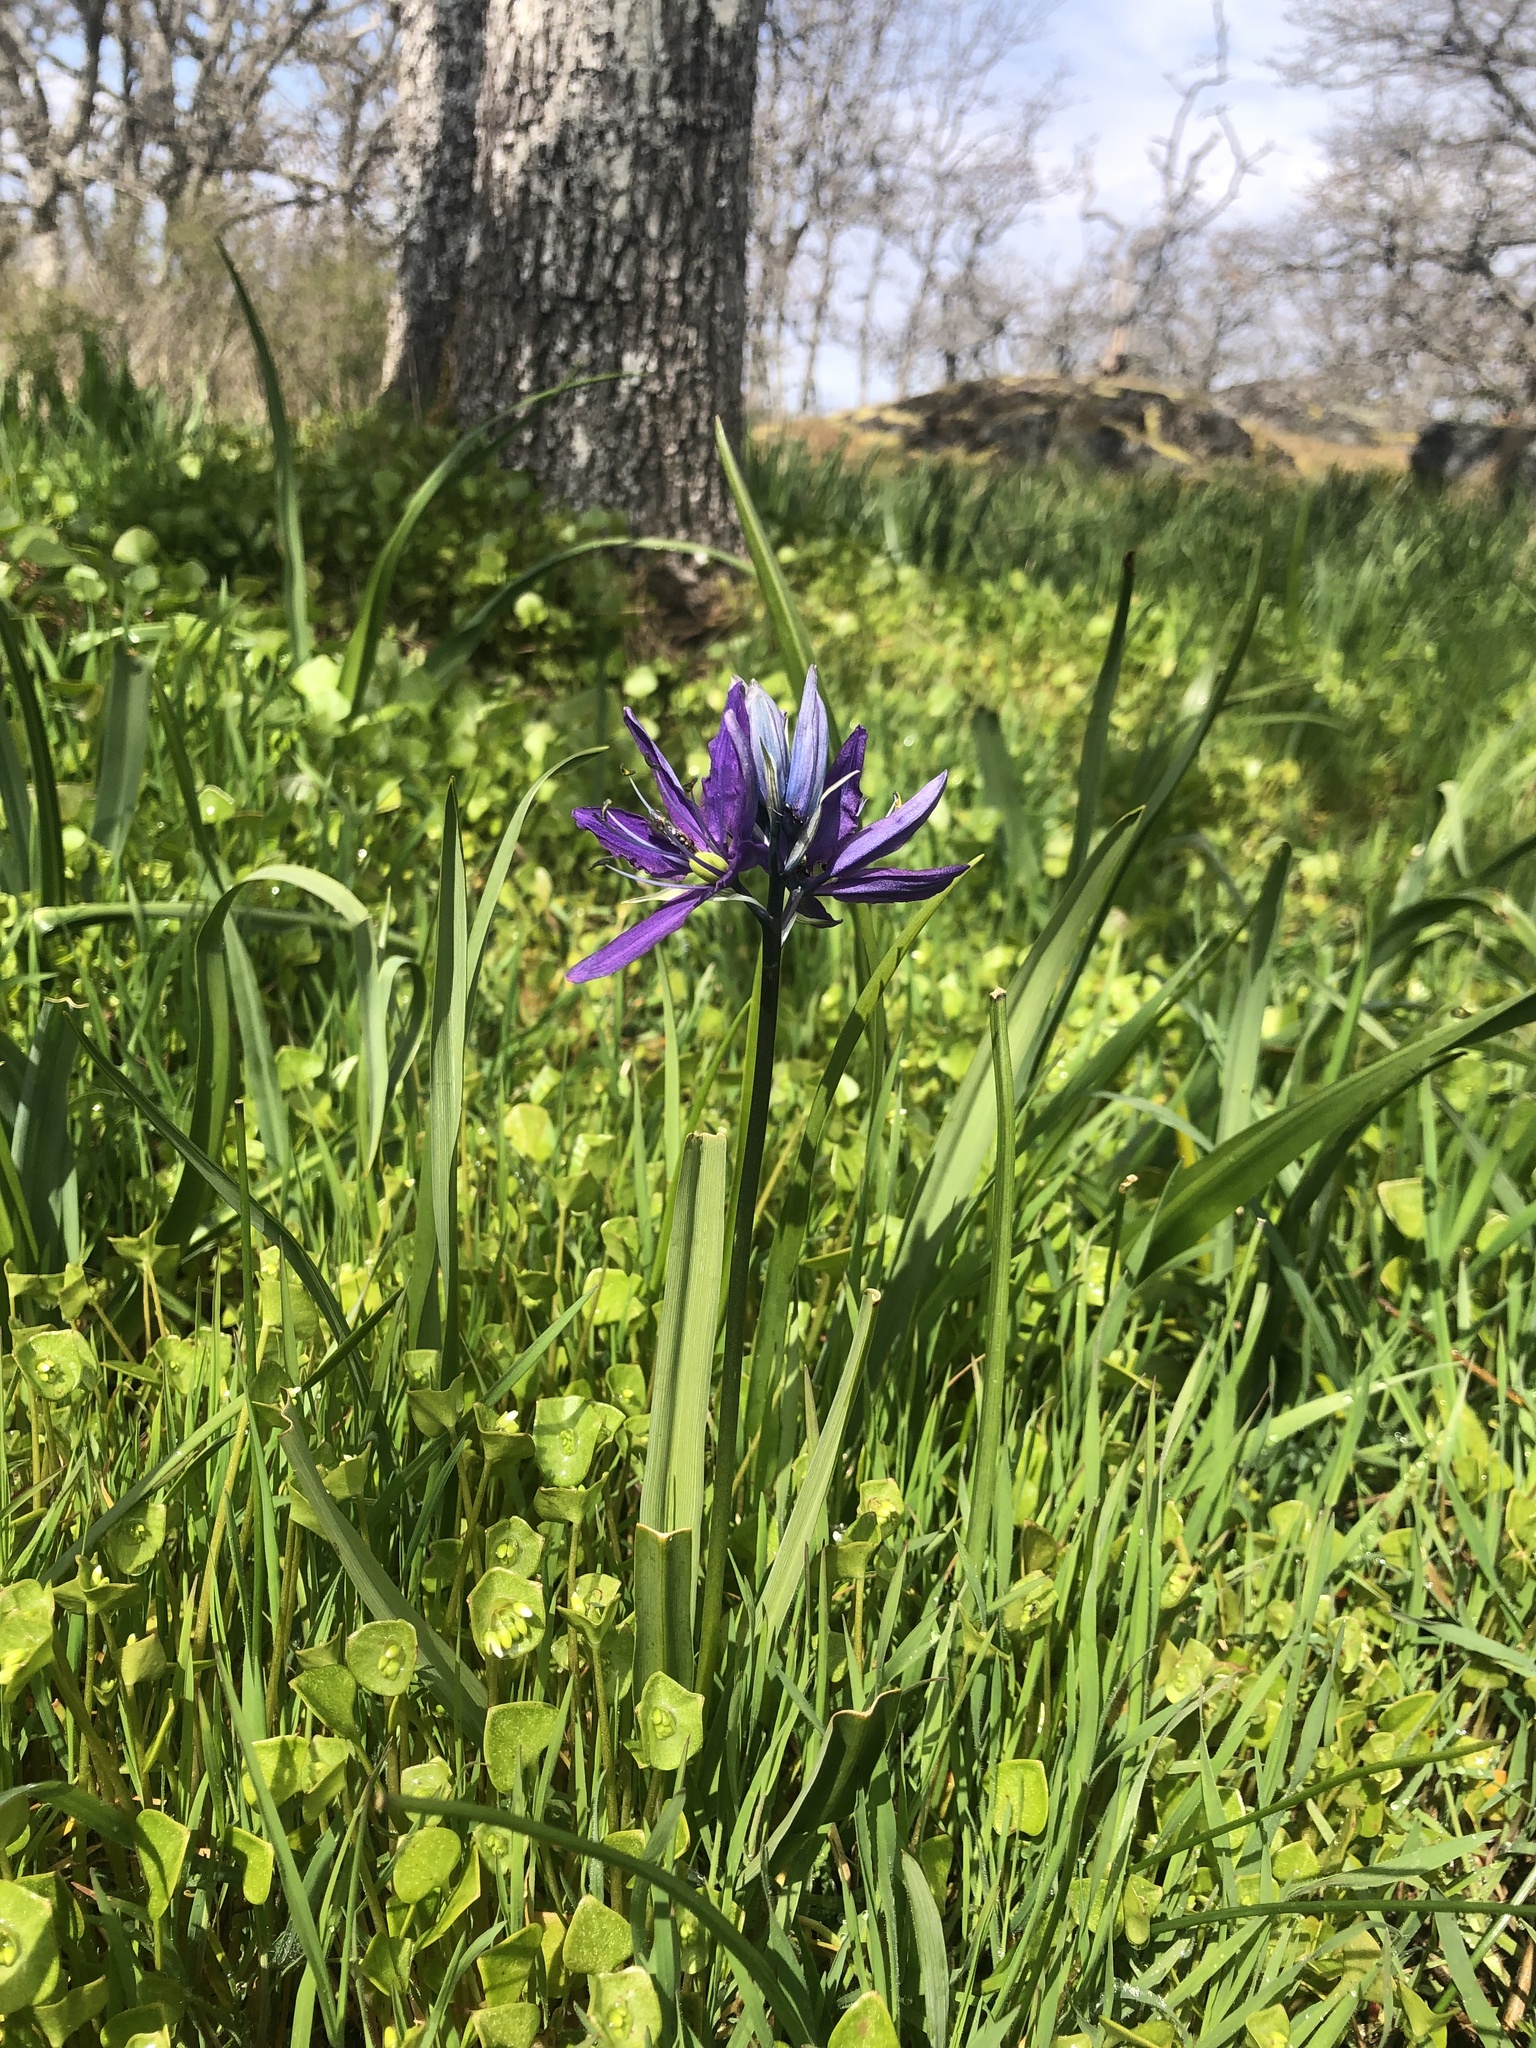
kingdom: Plantae
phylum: Tracheophyta
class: Liliopsida
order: Asparagales
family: Asparagaceae
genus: Camassia
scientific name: Camassia quamash
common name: Common camas
